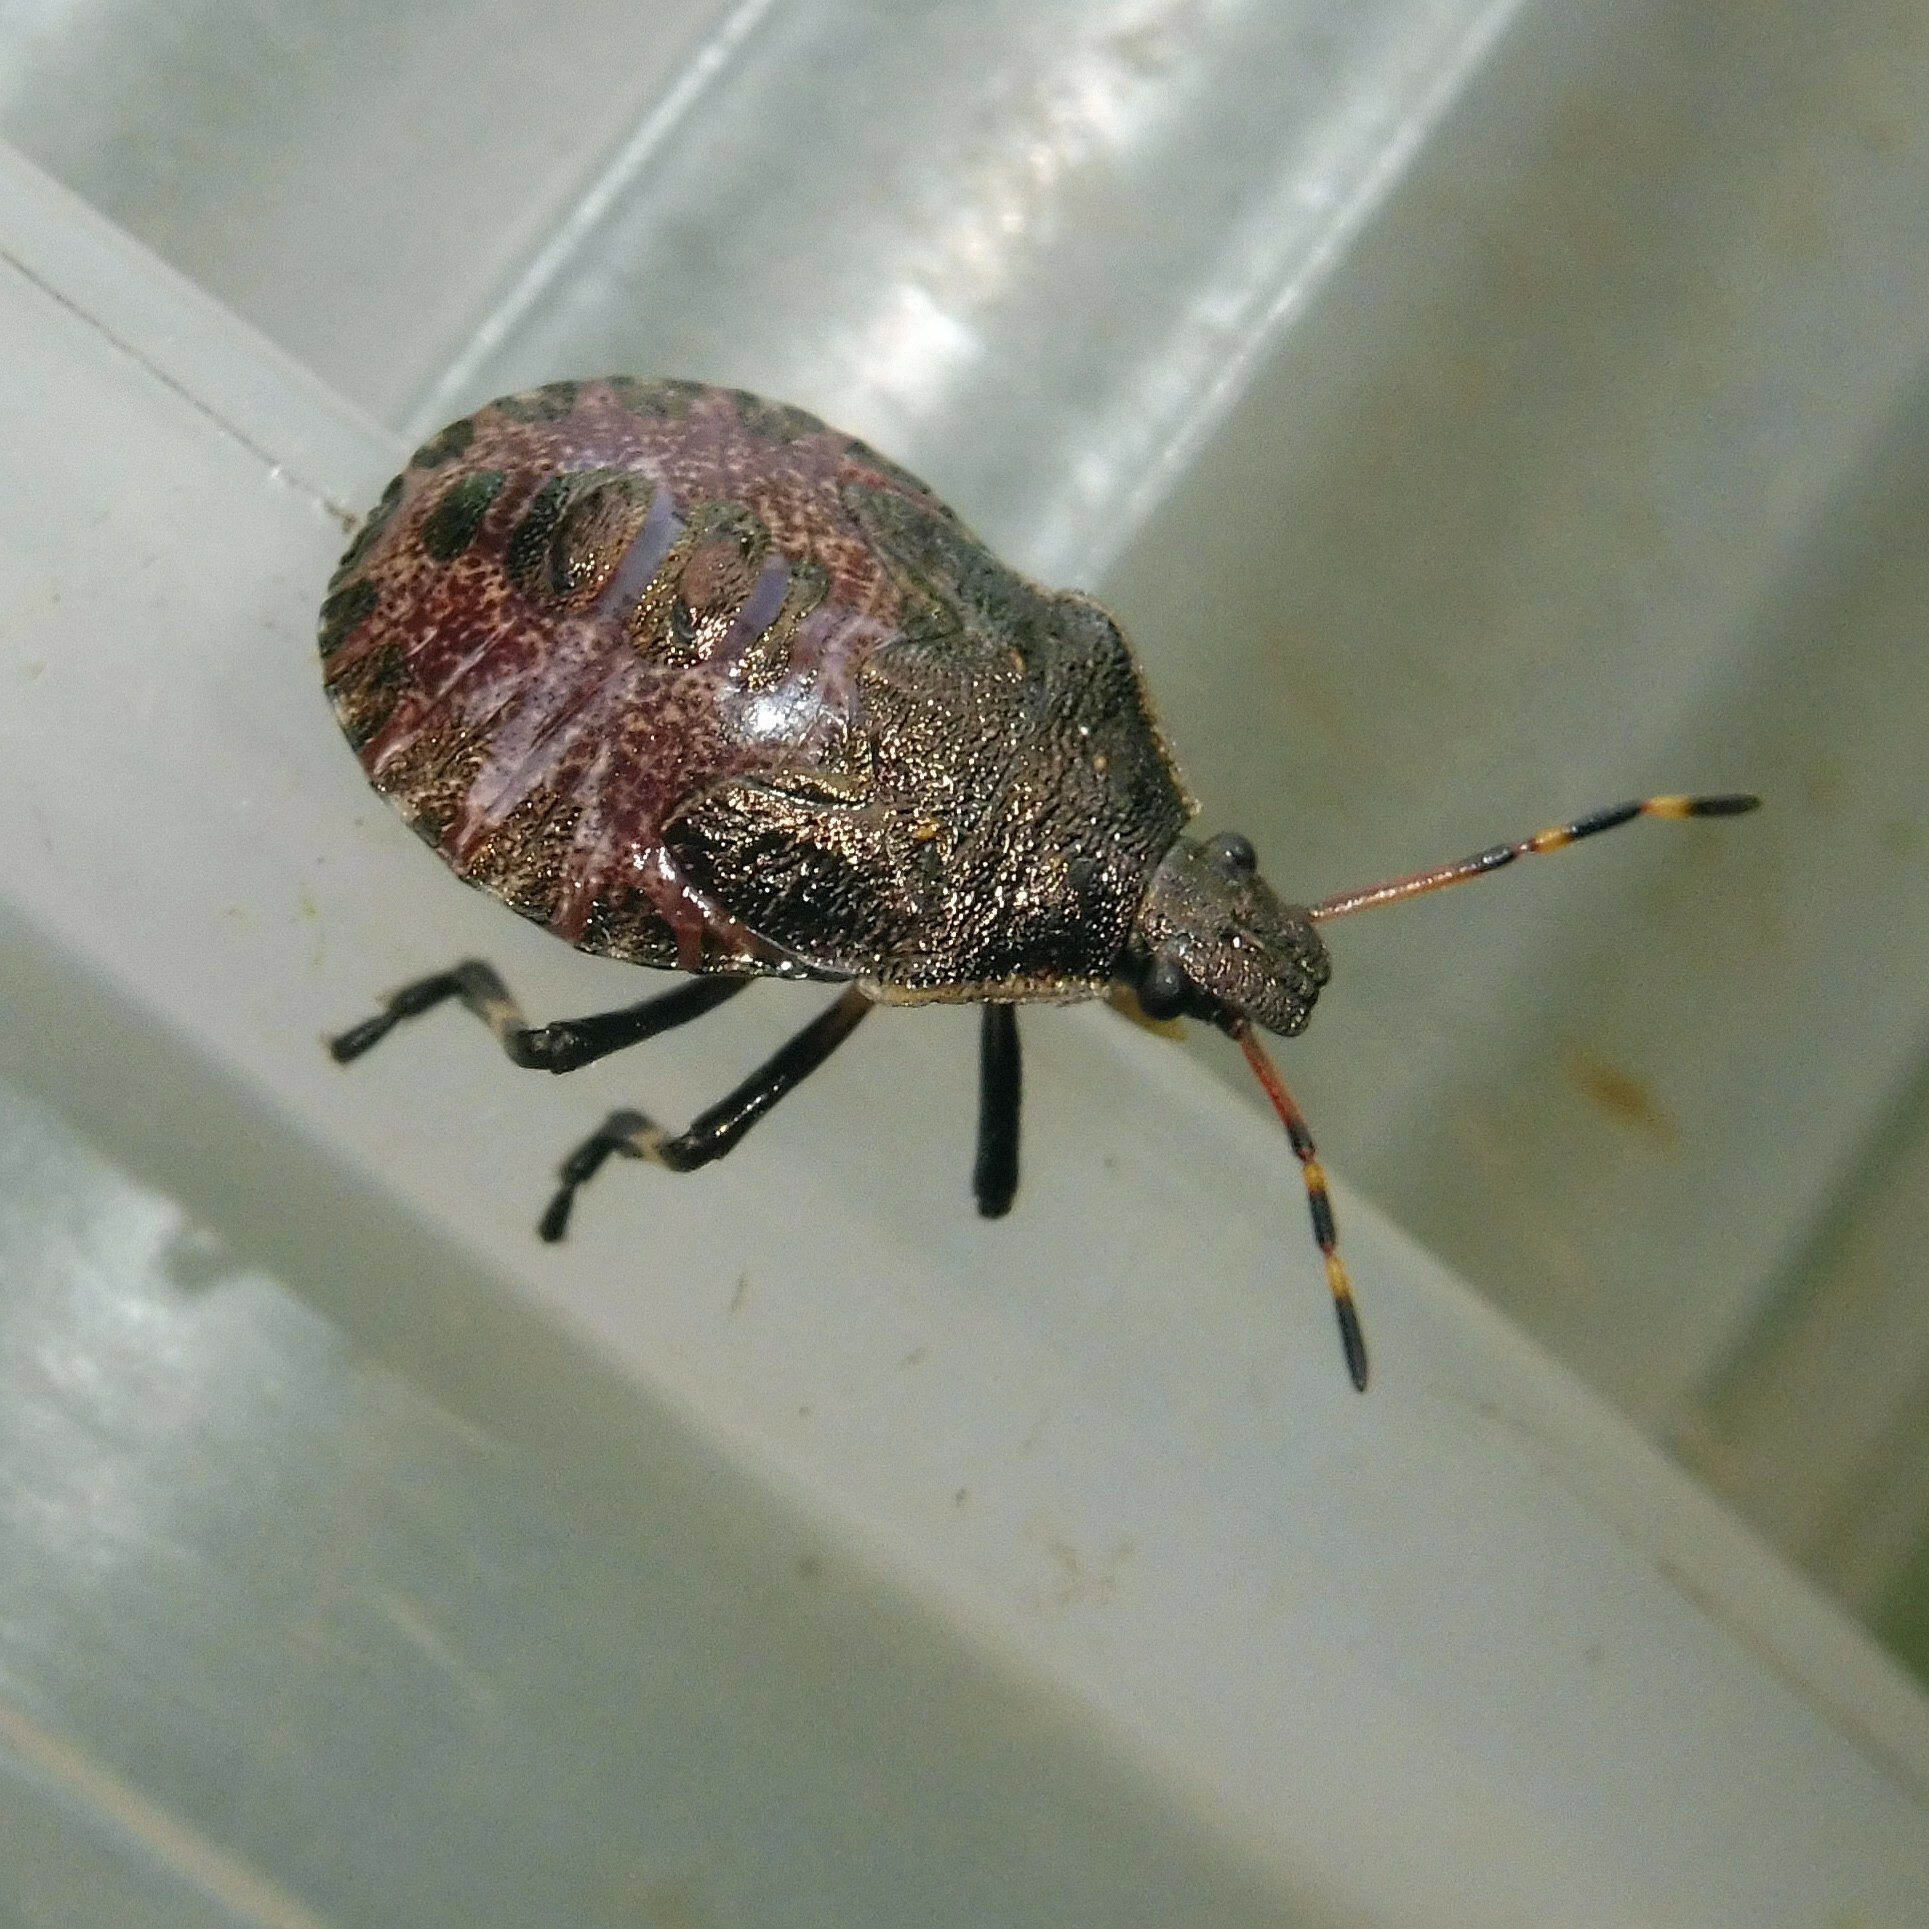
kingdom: Animalia
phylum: Arthropoda
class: Insecta
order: Hemiptera
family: Pentatomidae
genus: Picromerus
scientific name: Picromerus bidens
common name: Spiked shieldbug
